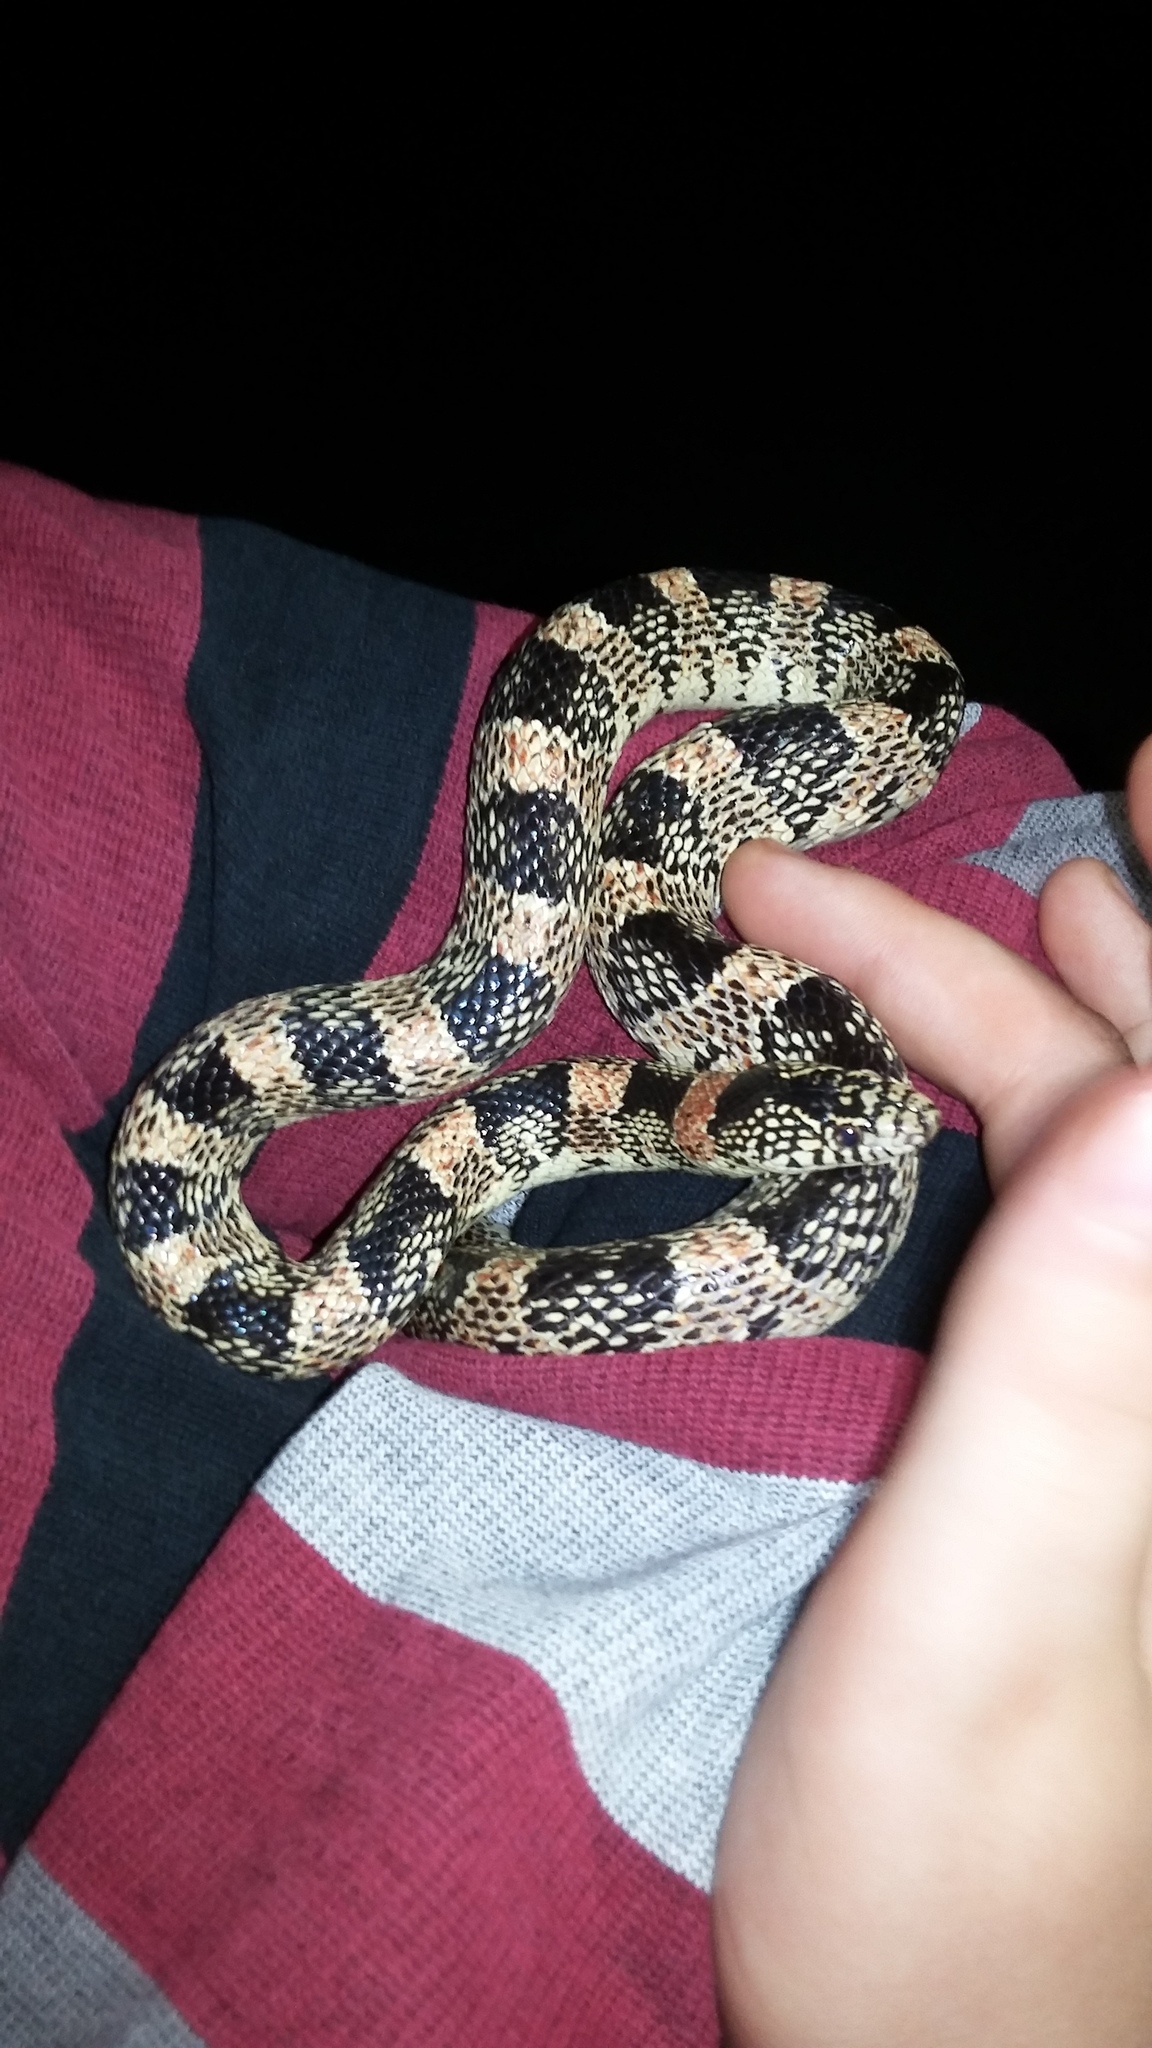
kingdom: Animalia
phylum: Chordata
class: Squamata
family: Colubridae
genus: Rhinocheilus
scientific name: Rhinocheilus lecontei
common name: Longnose snake
